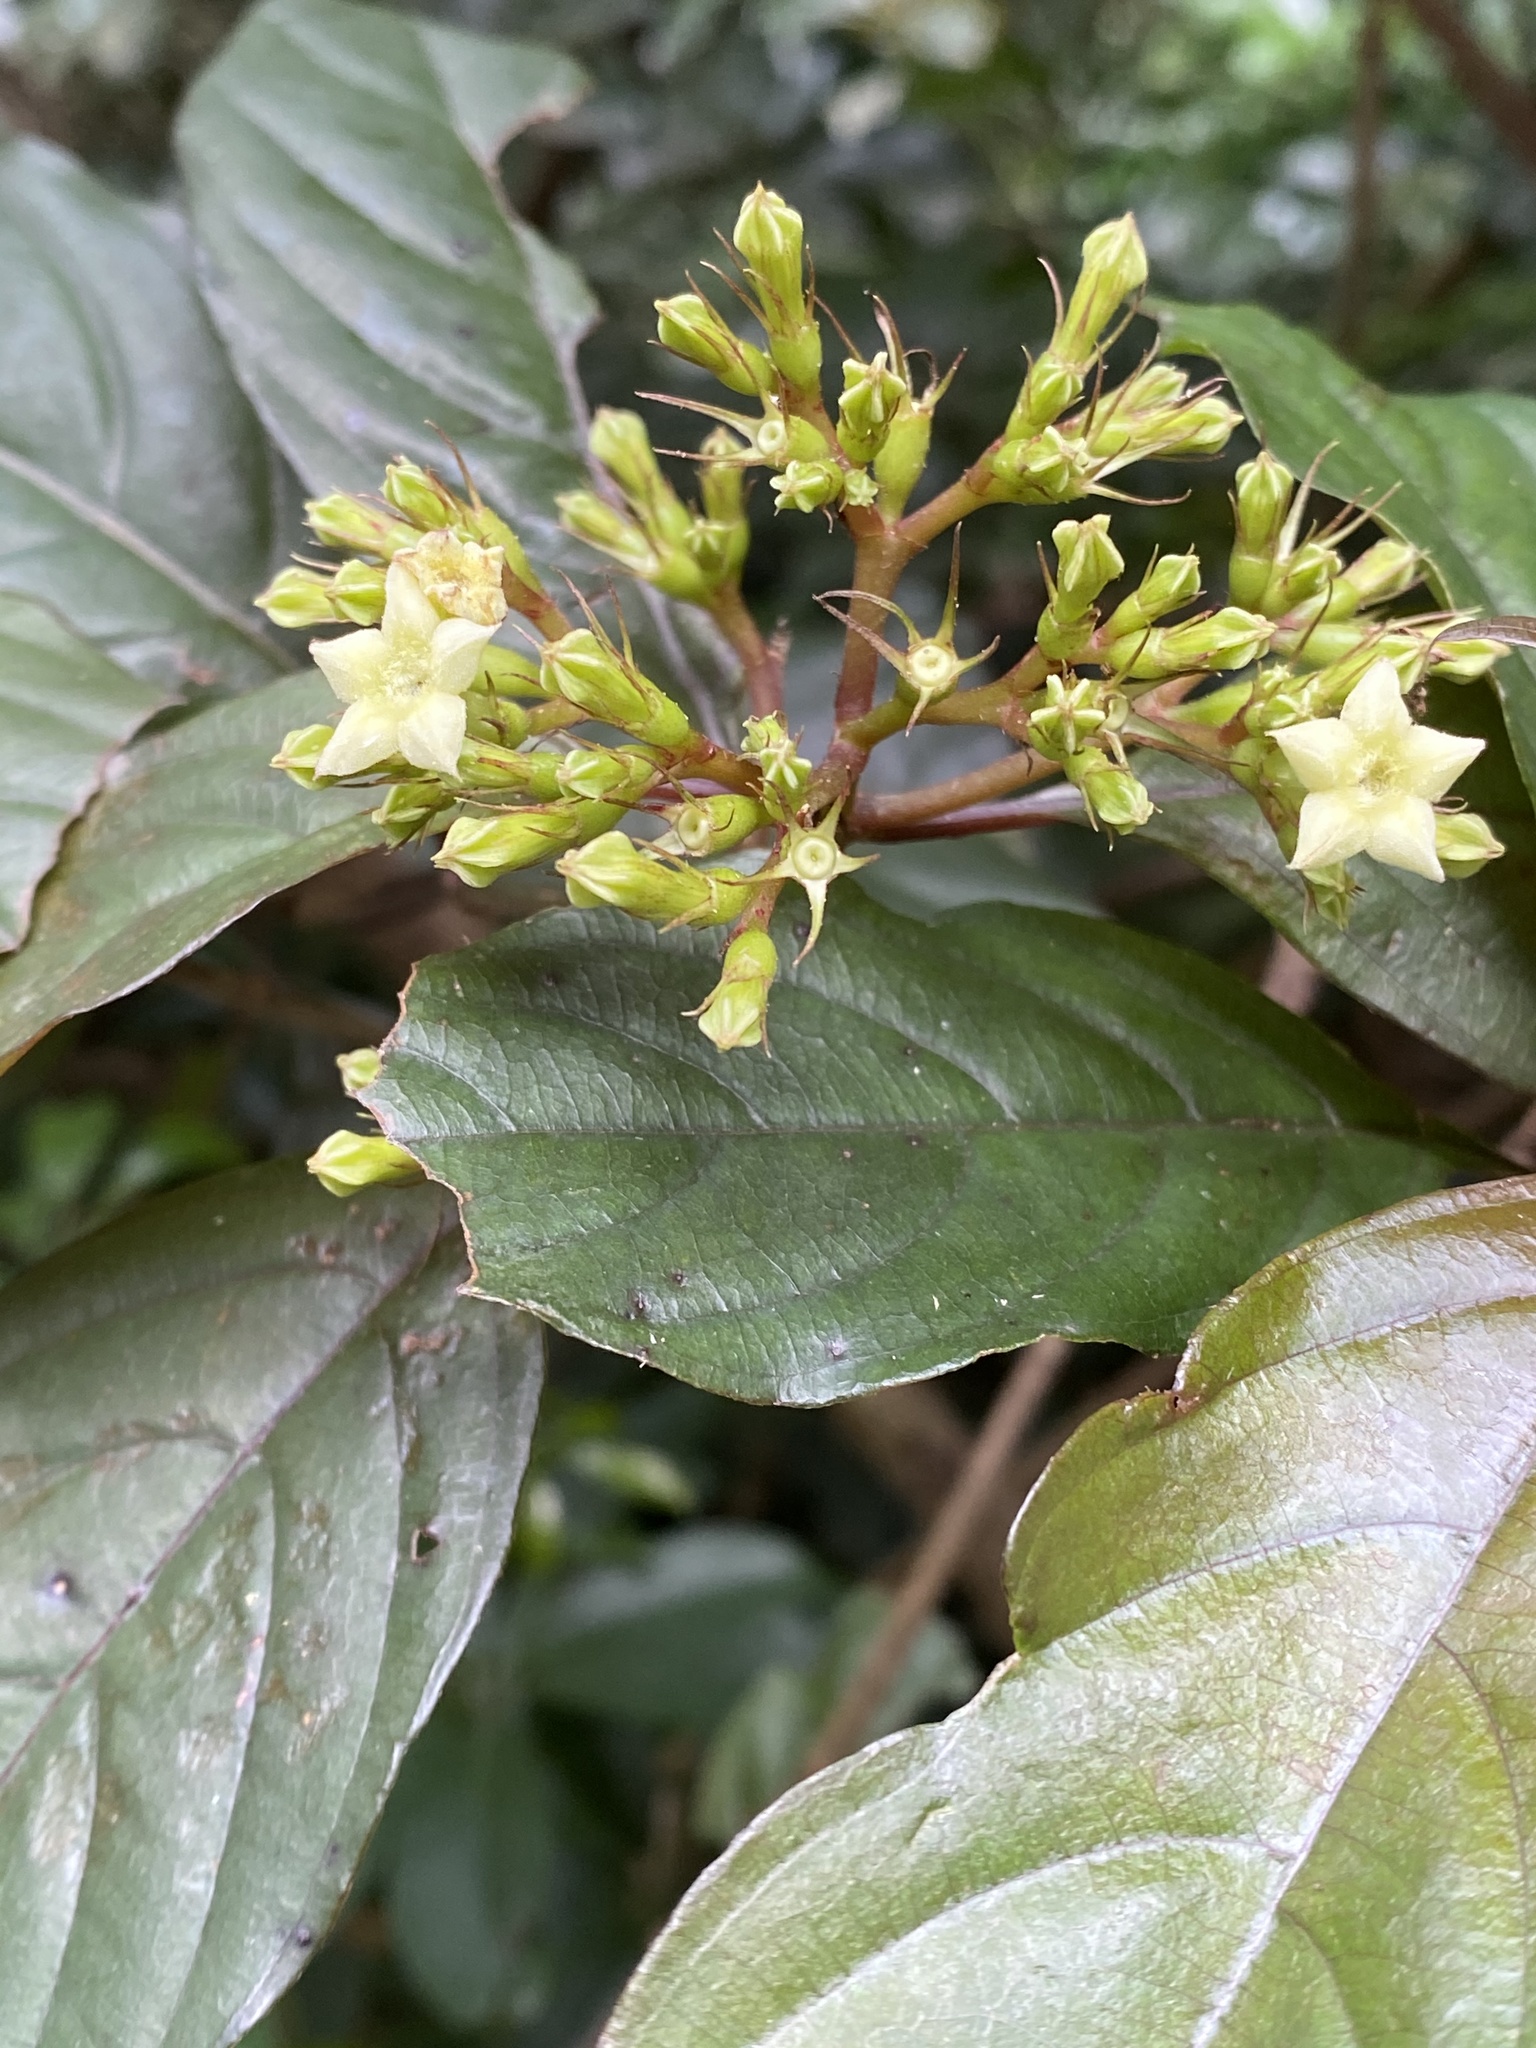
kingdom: Plantae
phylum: Tracheophyta
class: Magnoliopsida
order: Gentianales
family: Rubiaceae
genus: Mussaenda
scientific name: Mussaenda parviflora
